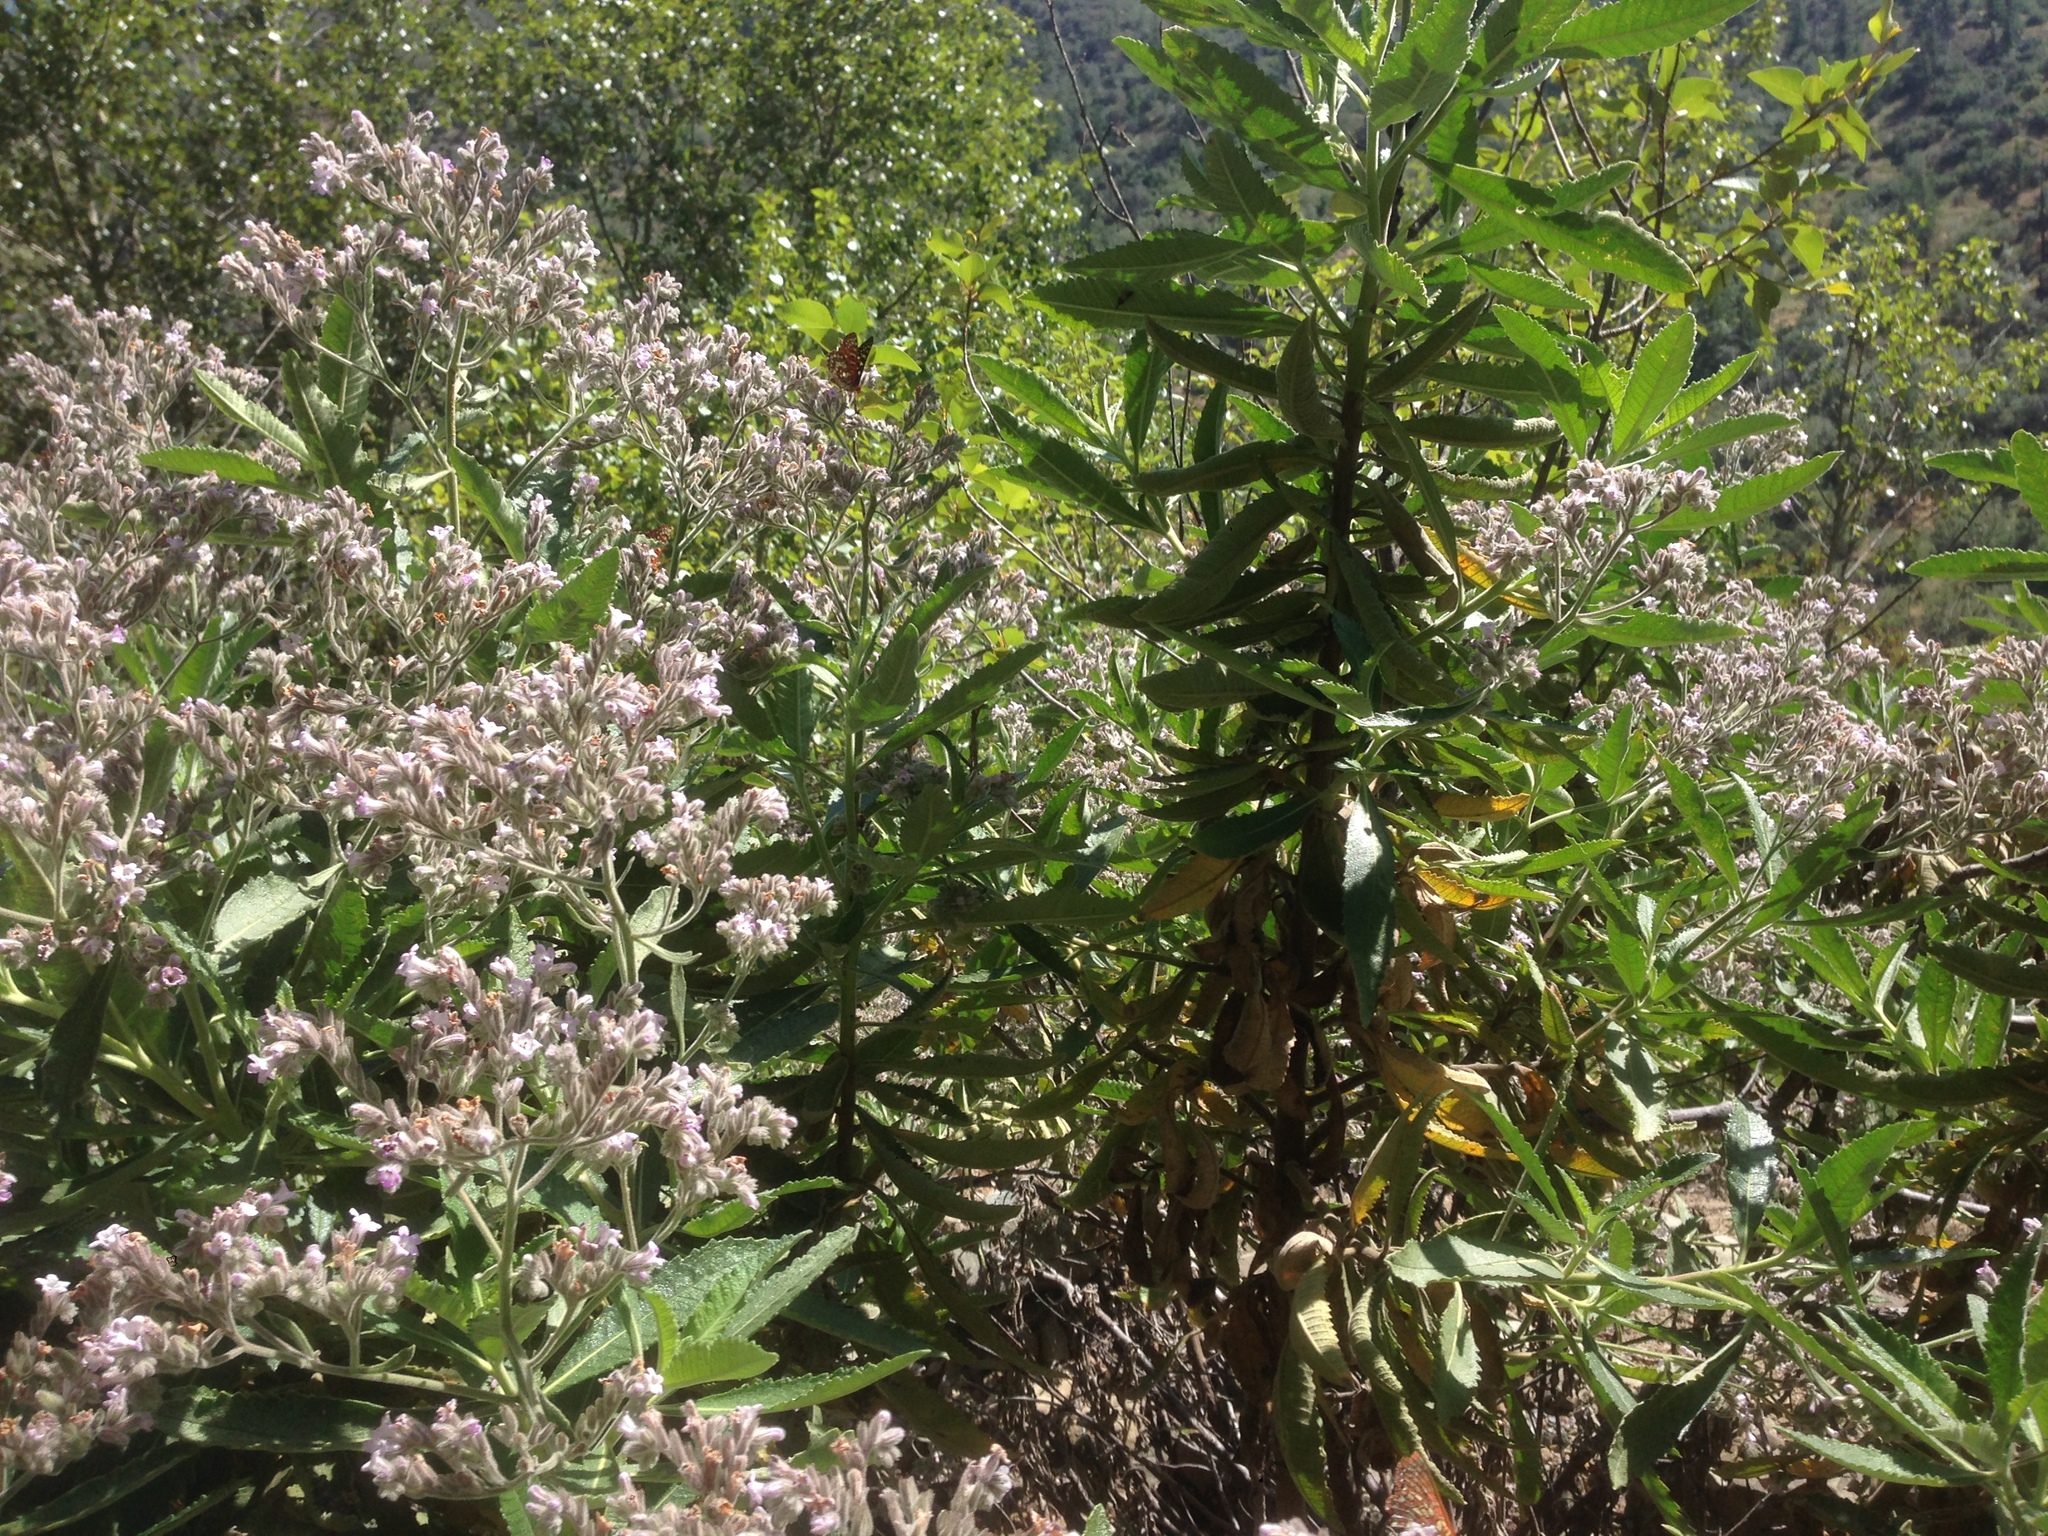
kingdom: Plantae
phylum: Tracheophyta
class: Magnoliopsida
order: Boraginales
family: Namaceae
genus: Eriodictyon
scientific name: Eriodictyon crassifolium
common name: Thick-leaf yerba-santa
